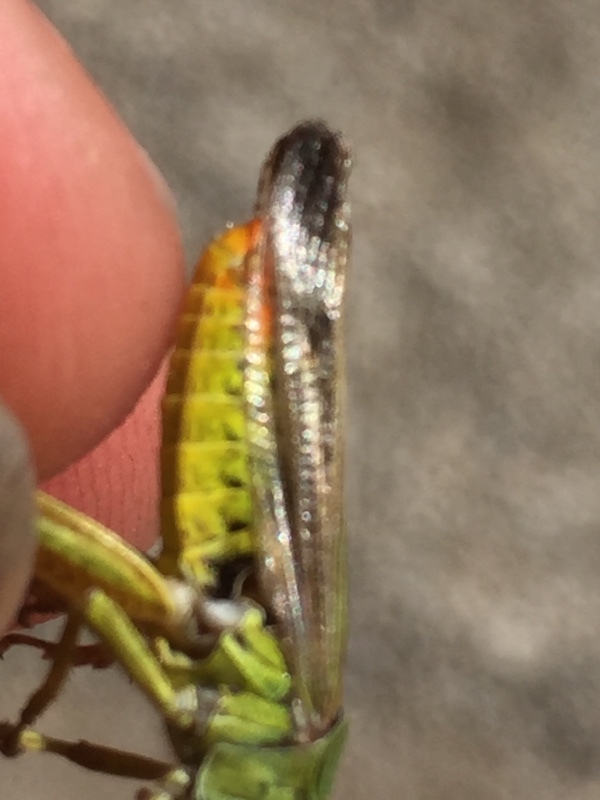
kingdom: Animalia
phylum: Arthropoda
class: Insecta
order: Orthoptera
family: Acrididae
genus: Chorthippus
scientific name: Chorthippus apicalis
